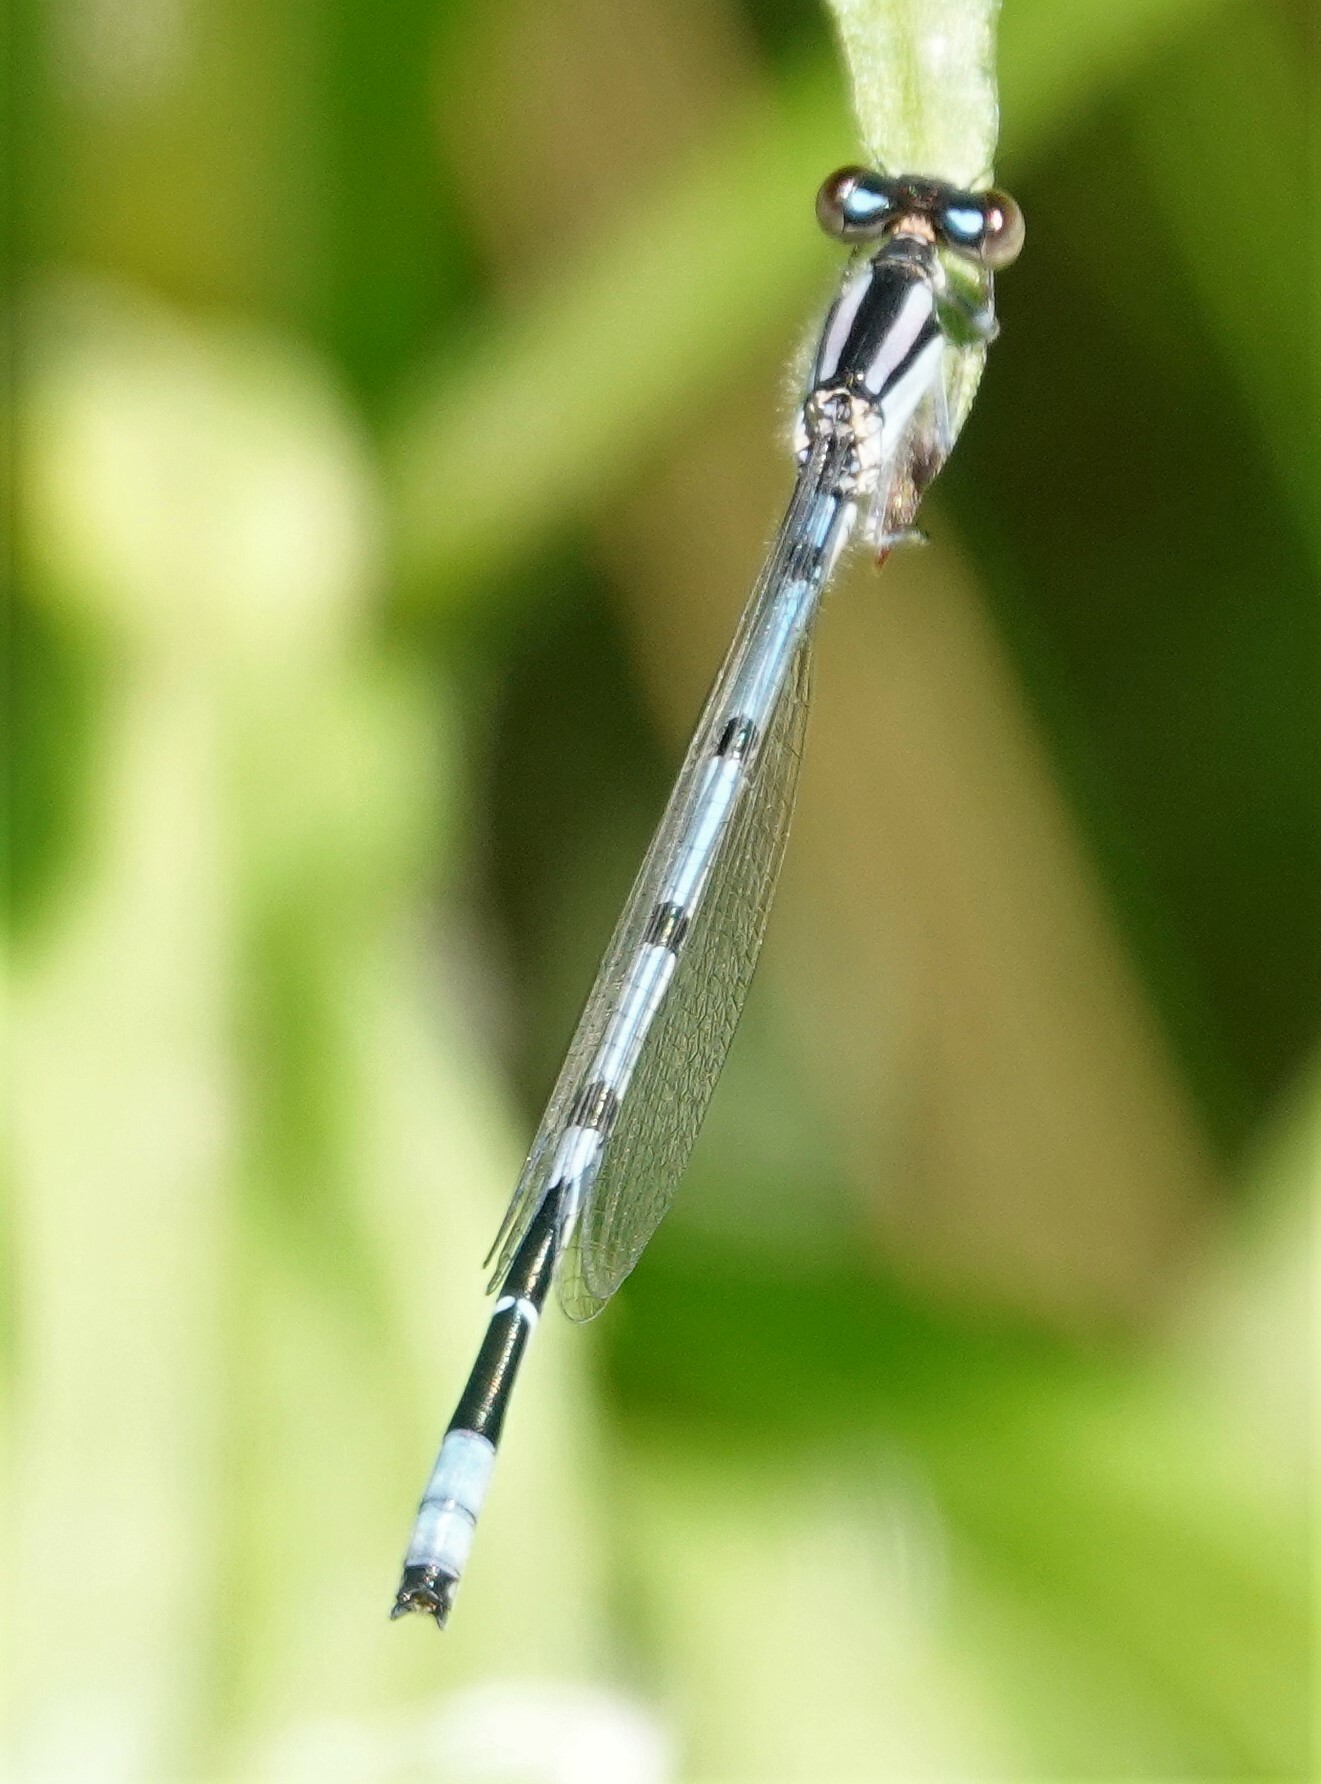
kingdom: Animalia
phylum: Arthropoda
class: Insecta
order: Odonata
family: Coenagrionidae
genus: Enallagma
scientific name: Enallagma civile
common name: Damselfly
